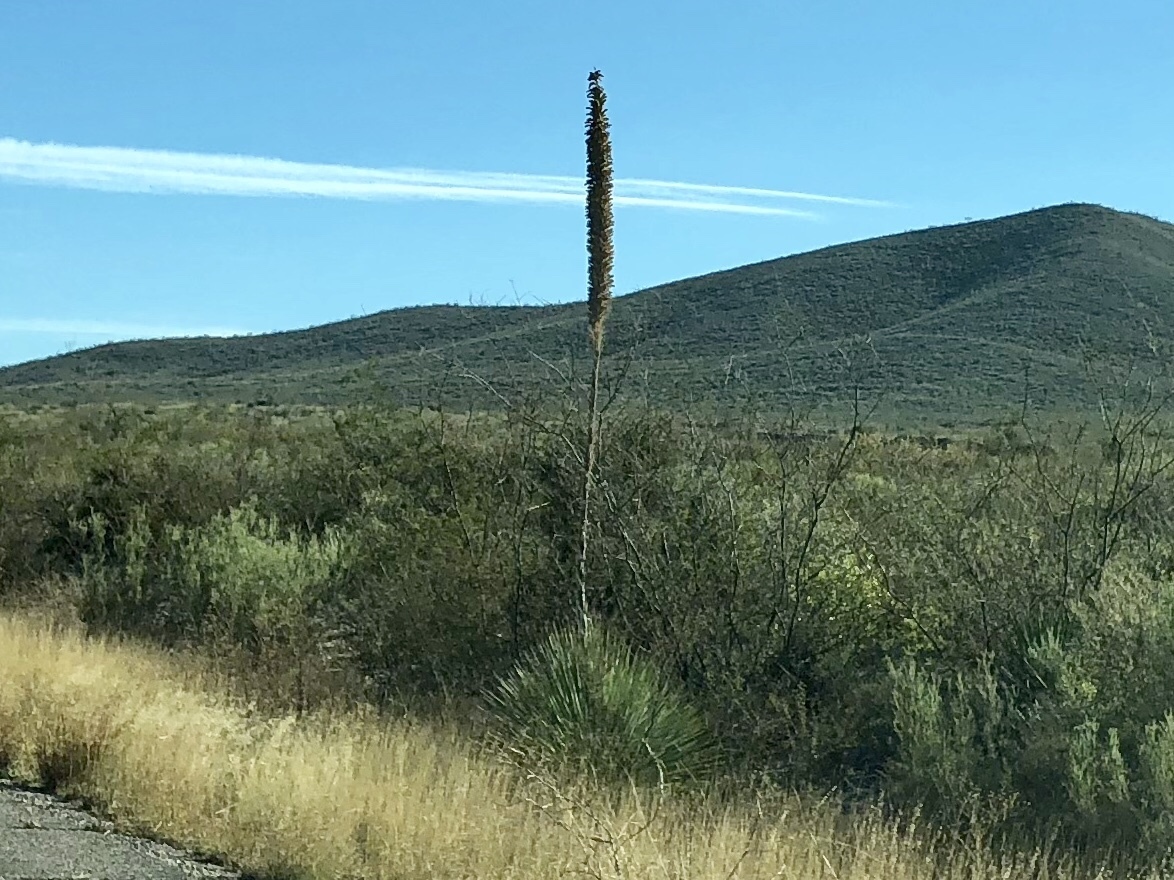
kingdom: Plantae
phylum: Tracheophyta
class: Liliopsida
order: Asparagales
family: Asparagaceae
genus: Dasylirion
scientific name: Dasylirion wheeleri
